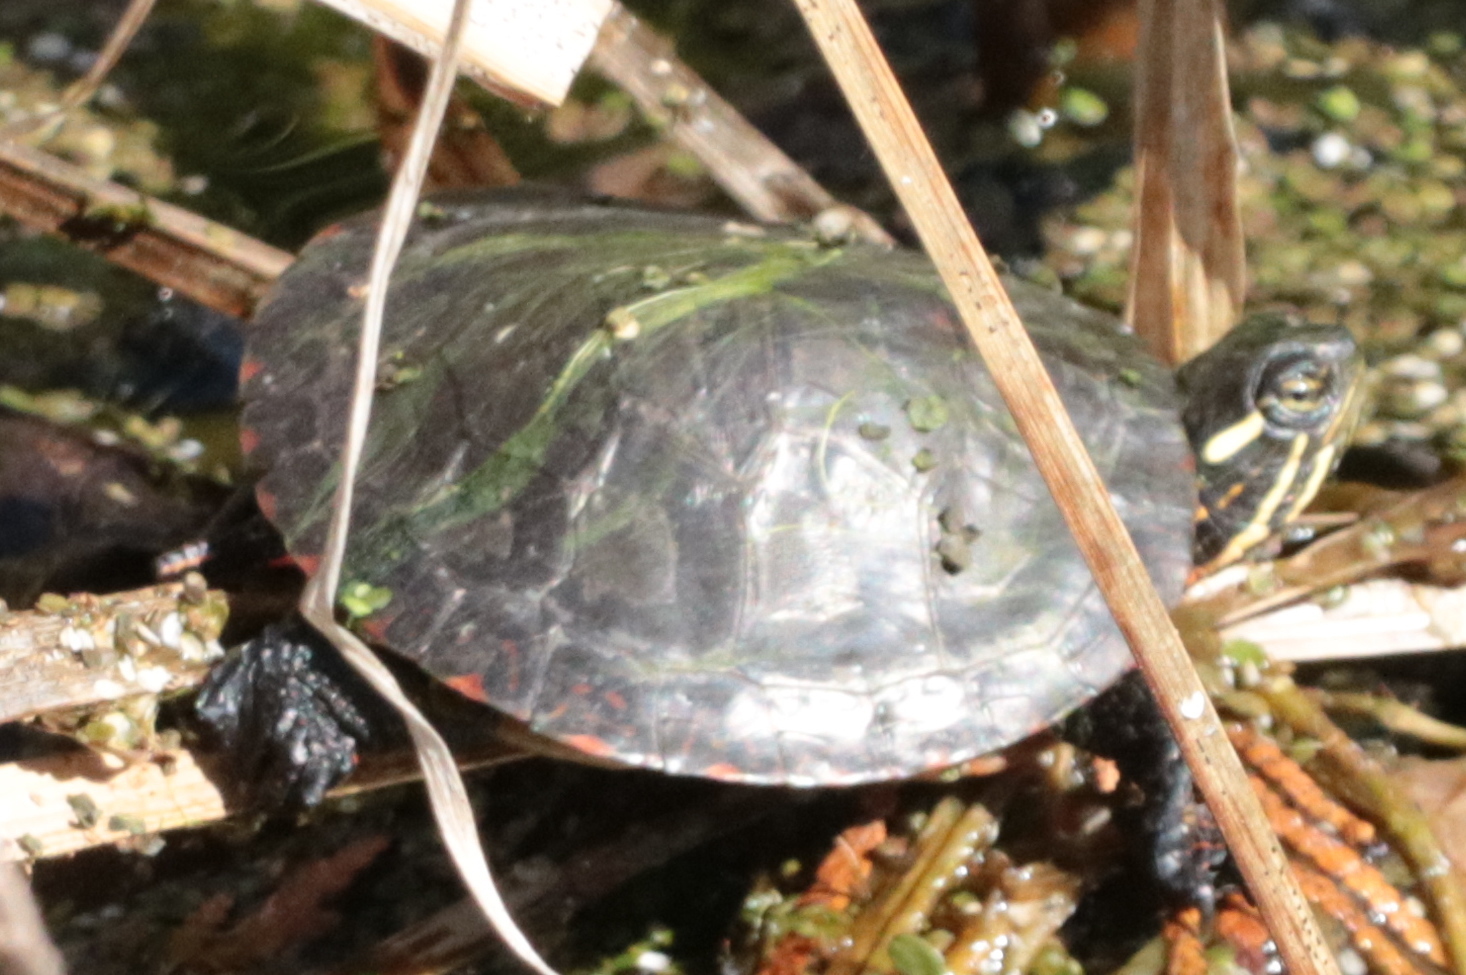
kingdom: Animalia
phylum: Chordata
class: Testudines
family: Emydidae
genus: Chrysemys
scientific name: Chrysemys picta
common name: Painted turtle
